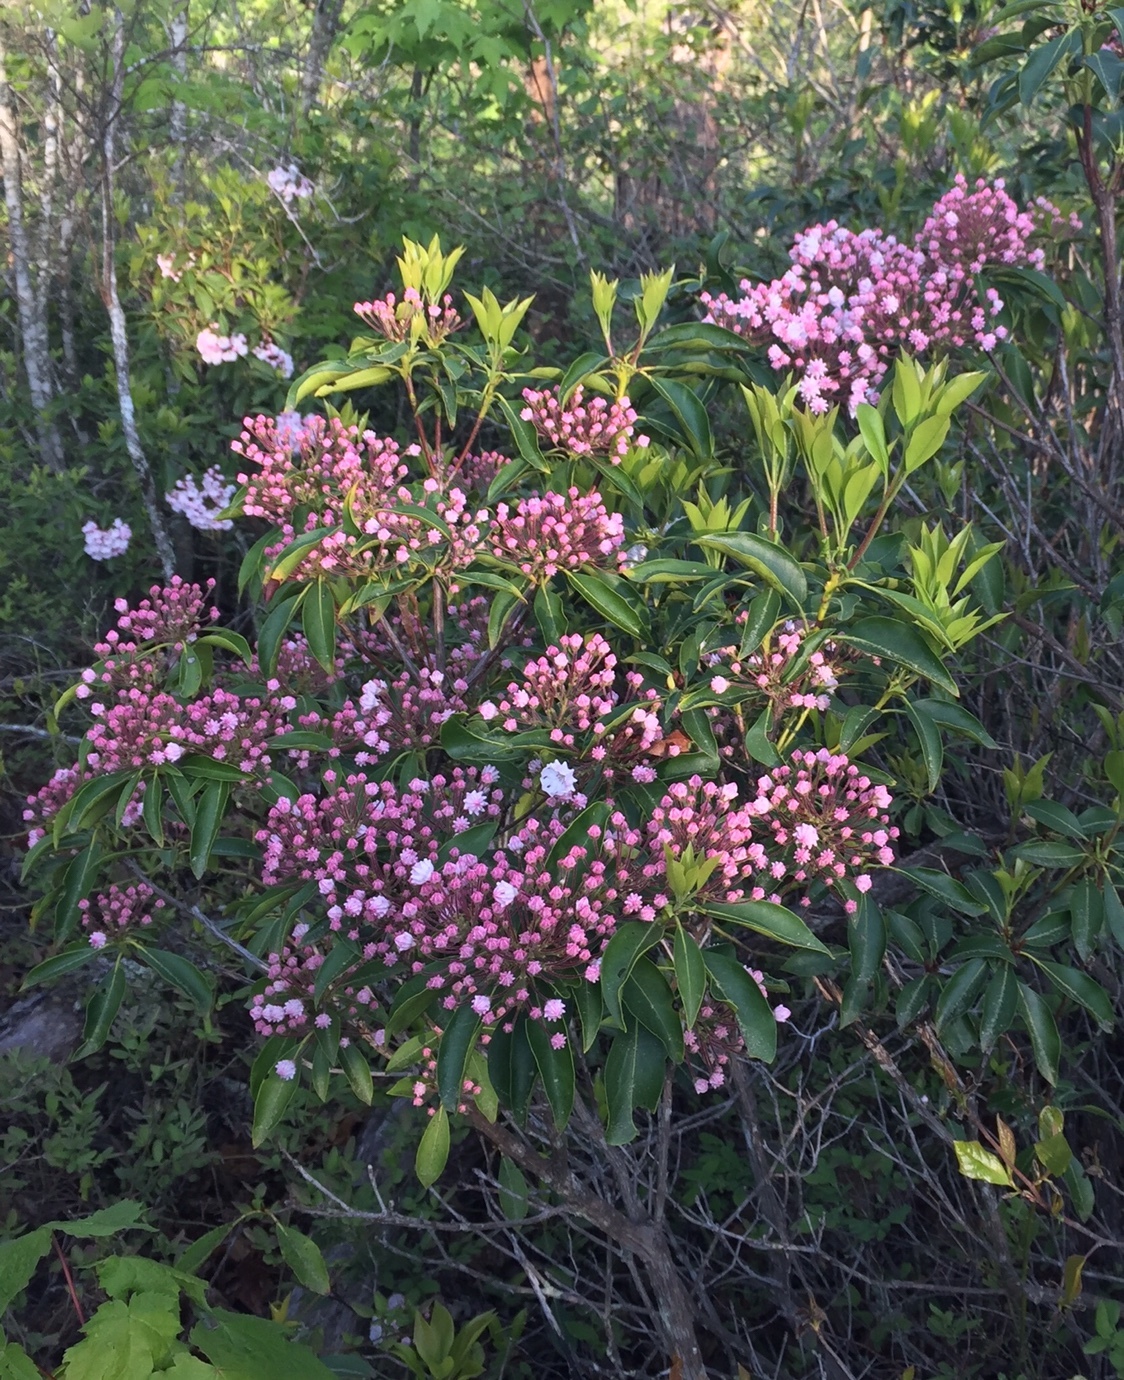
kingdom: Plantae
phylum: Tracheophyta
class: Magnoliopsida
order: Ericales
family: Ericaceae
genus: Kalmia
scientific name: Kalmia latifolia
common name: Mountain-laurel
